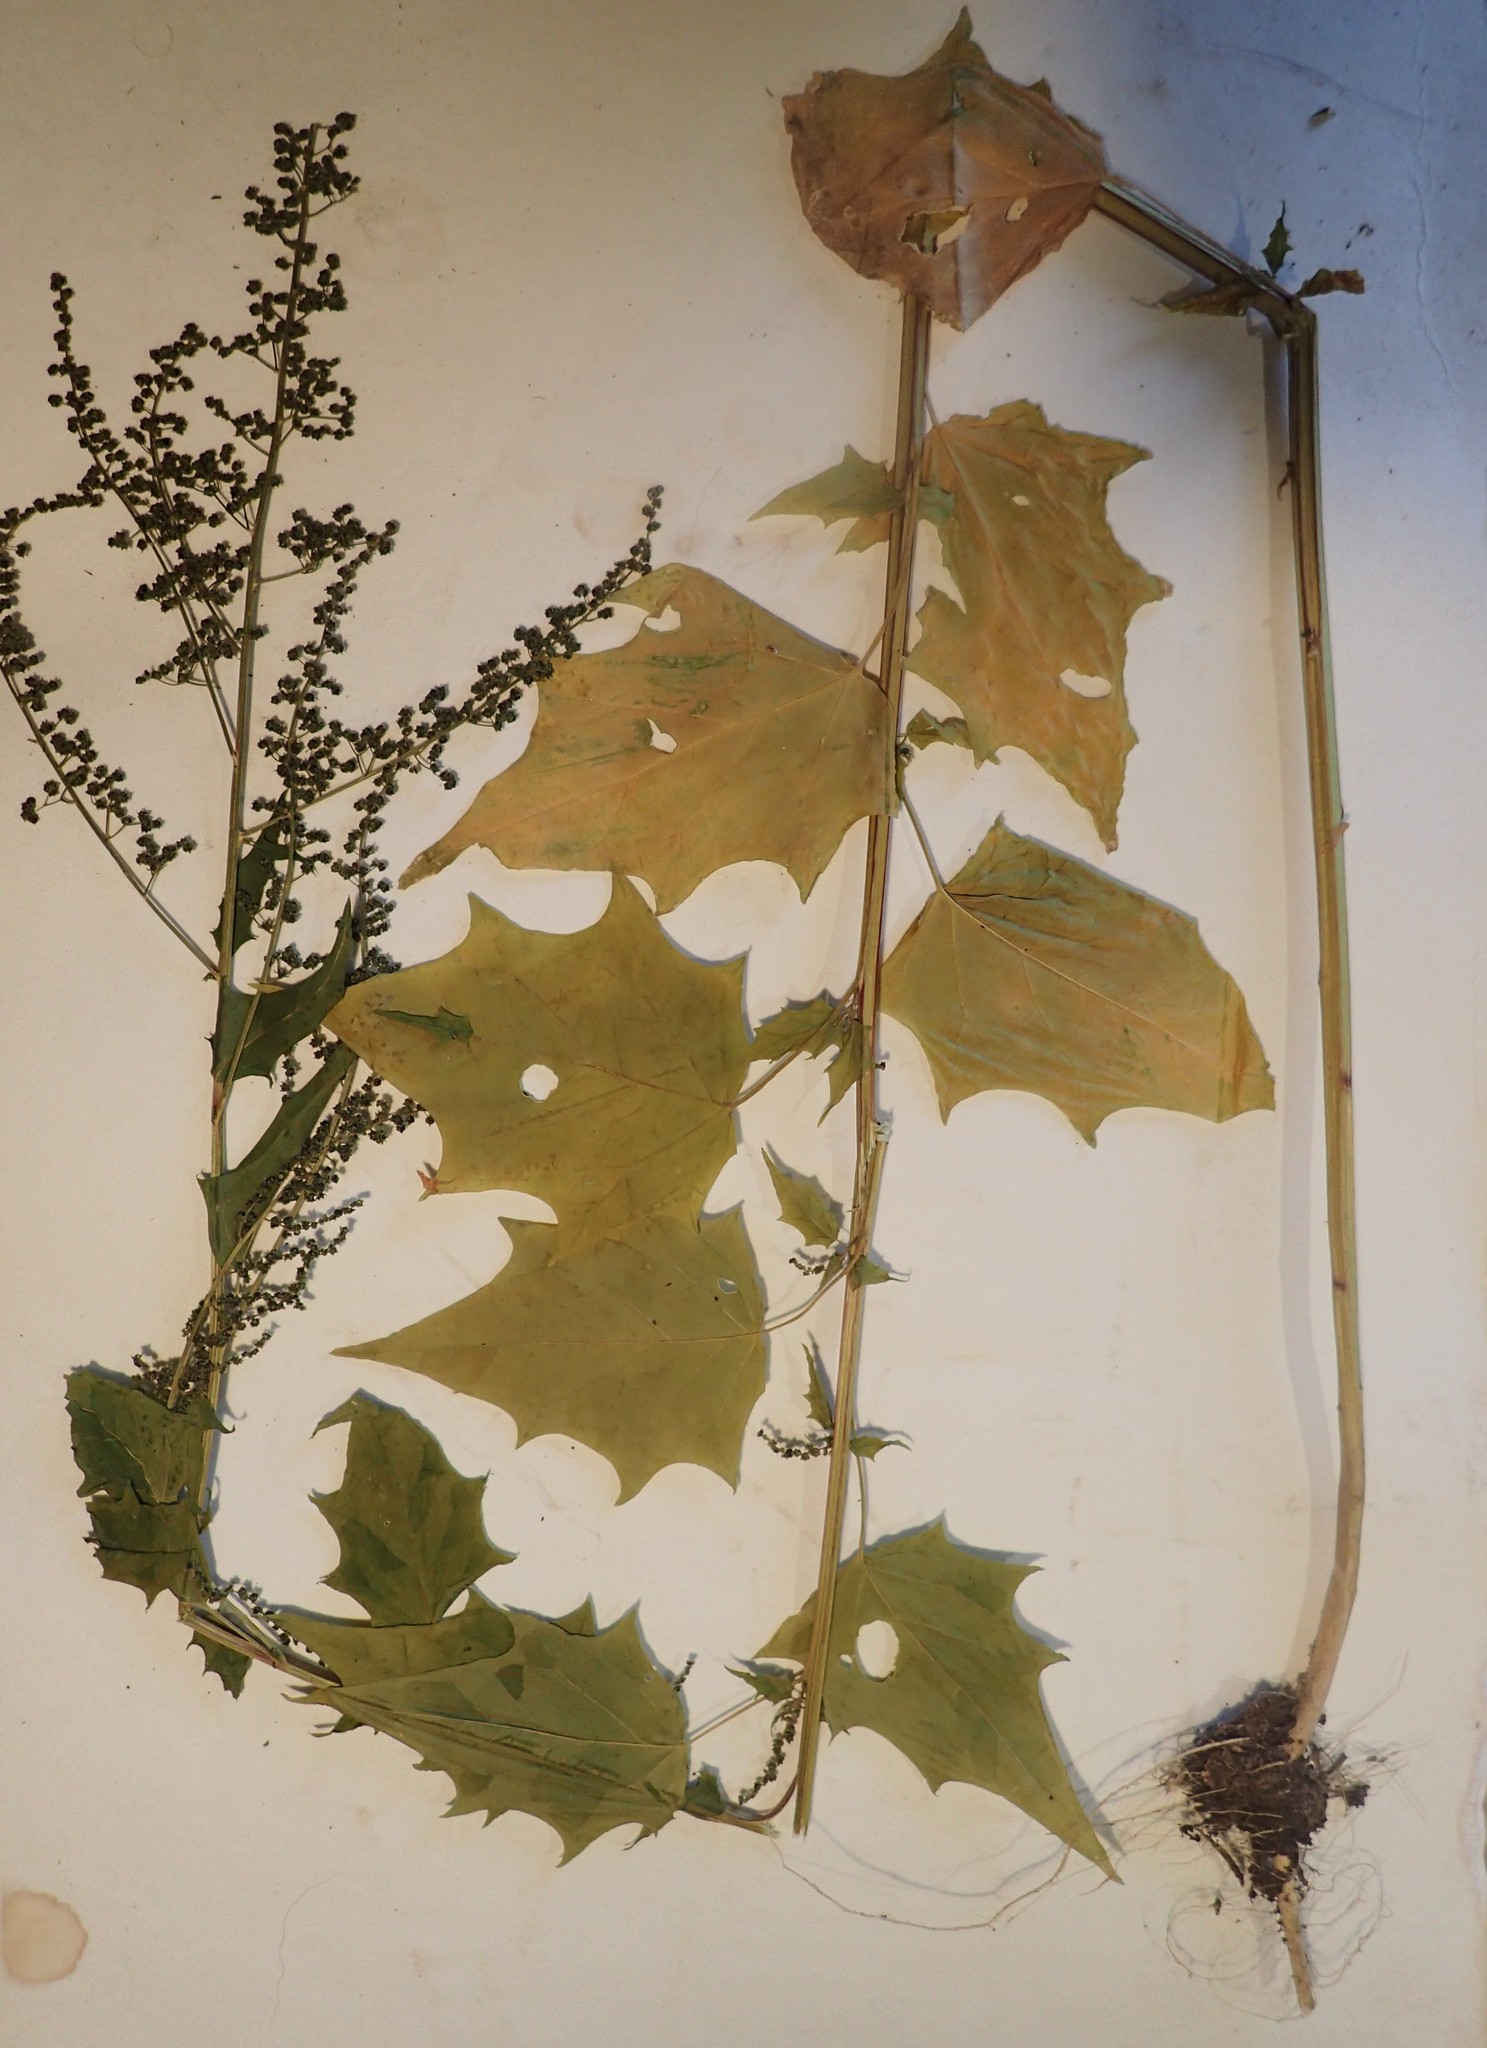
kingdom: Plantae
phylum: Tracheophyta
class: Magnoliopsida
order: Caryophyllales
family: Amaranthaceae
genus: Chenopodiastrum
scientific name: Chenopodiastrum simplex
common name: Large-seed goosefoot
